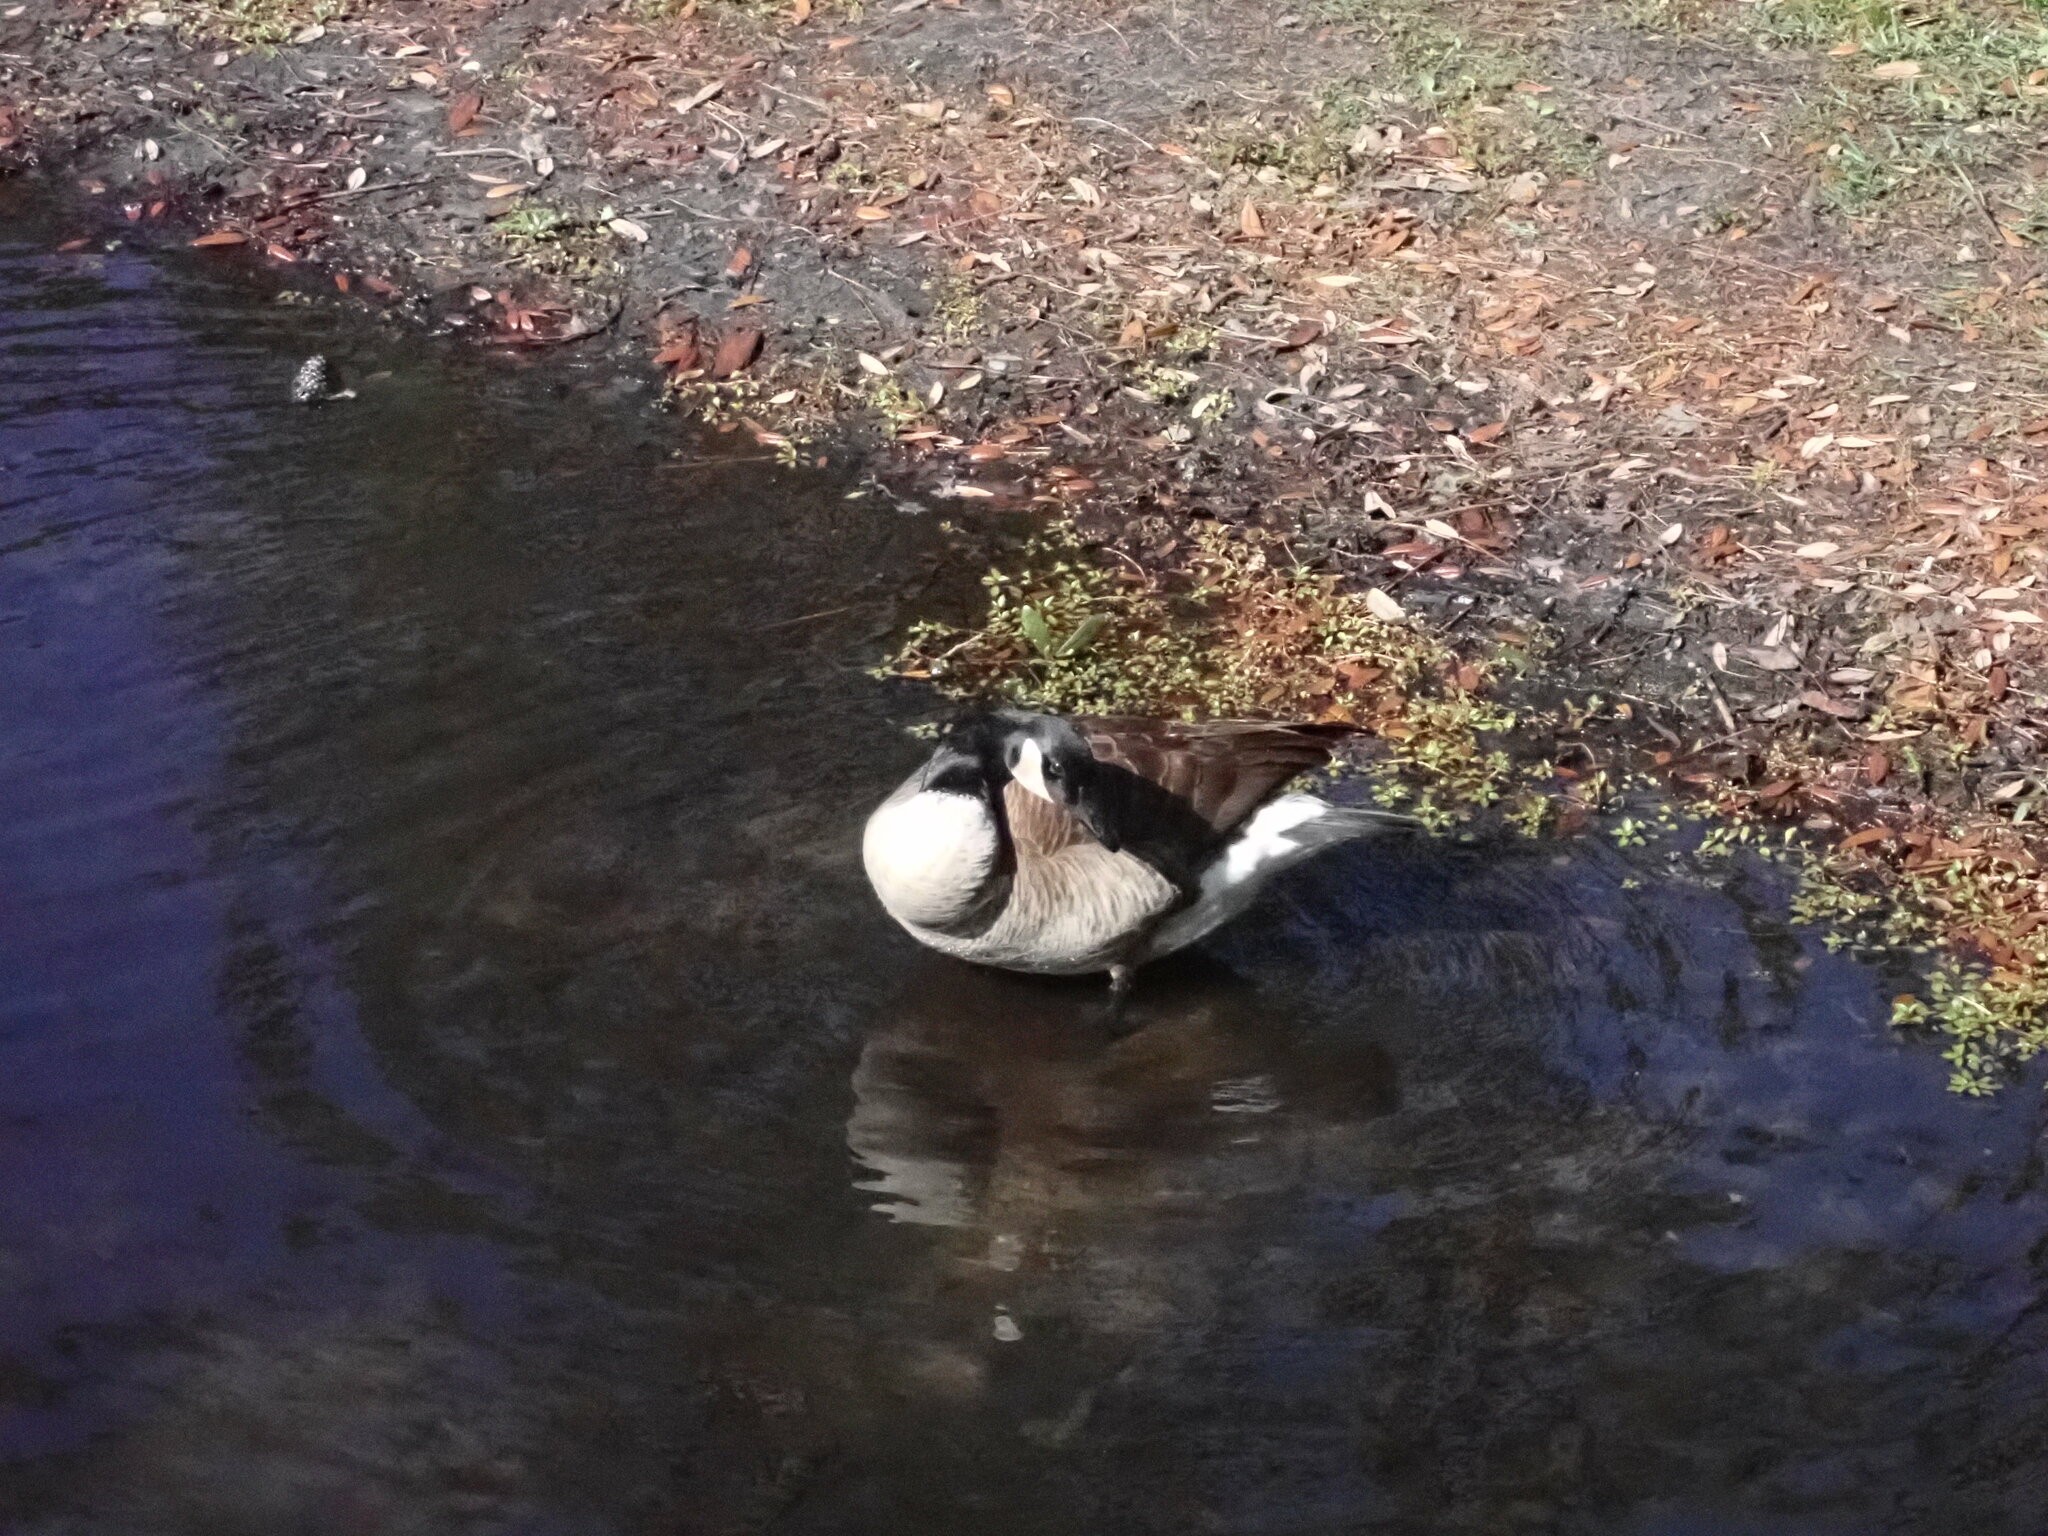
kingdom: Animalia
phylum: Chordata
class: Aves
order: Anseriformes
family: Anatidae
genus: Branta
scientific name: Branta canadensis
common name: Canada goose
